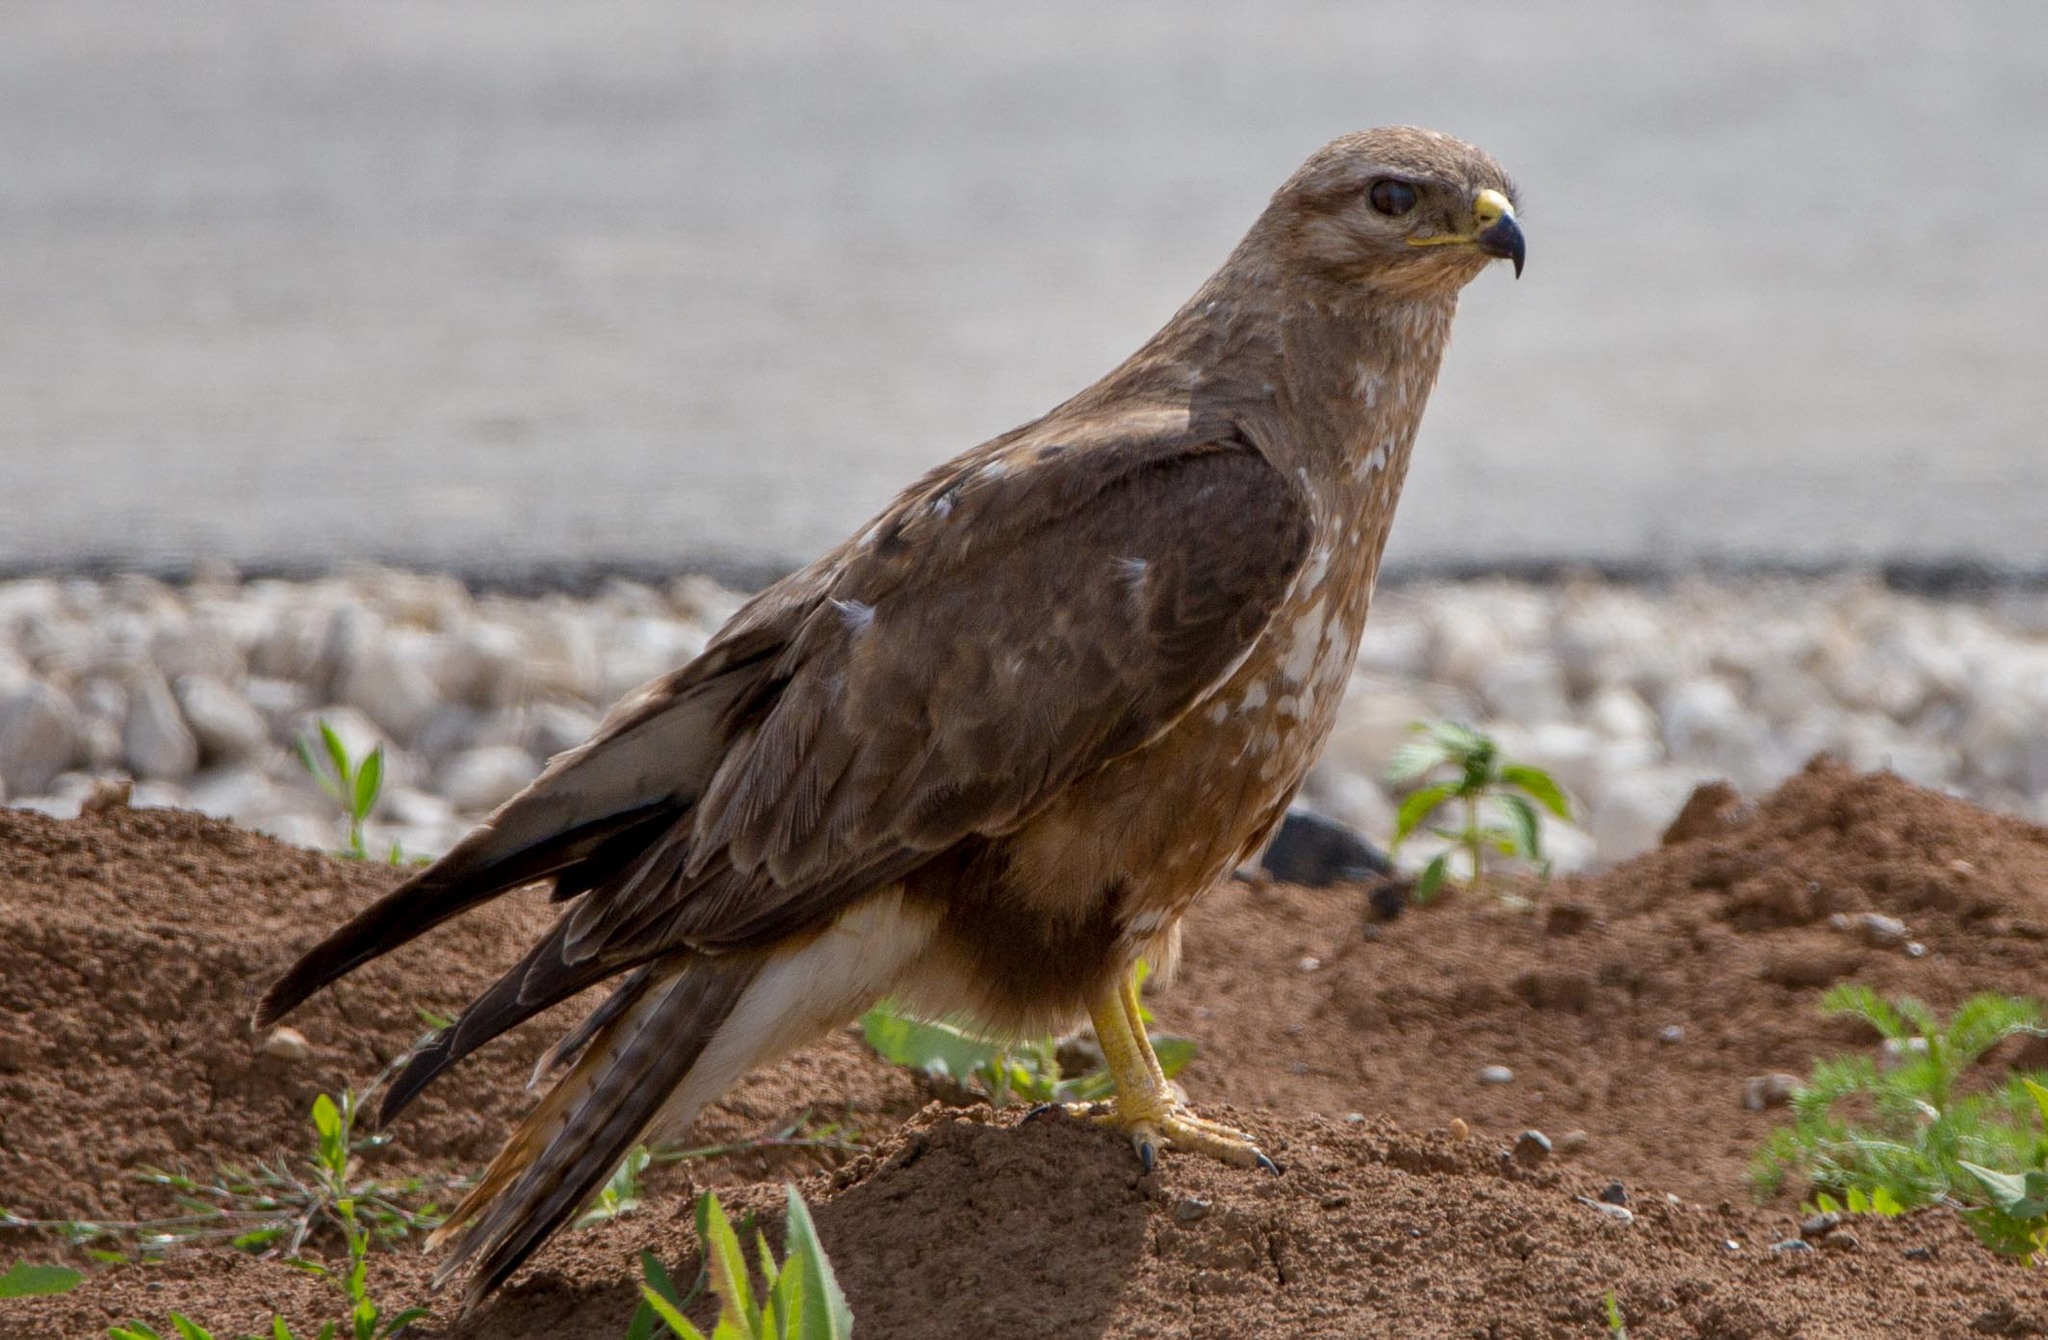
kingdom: Animalia
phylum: Chordata
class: Aves
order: Accipitriformes
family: Accipitridae
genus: Buteo
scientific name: Buteo buteo
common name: Common buzzard
